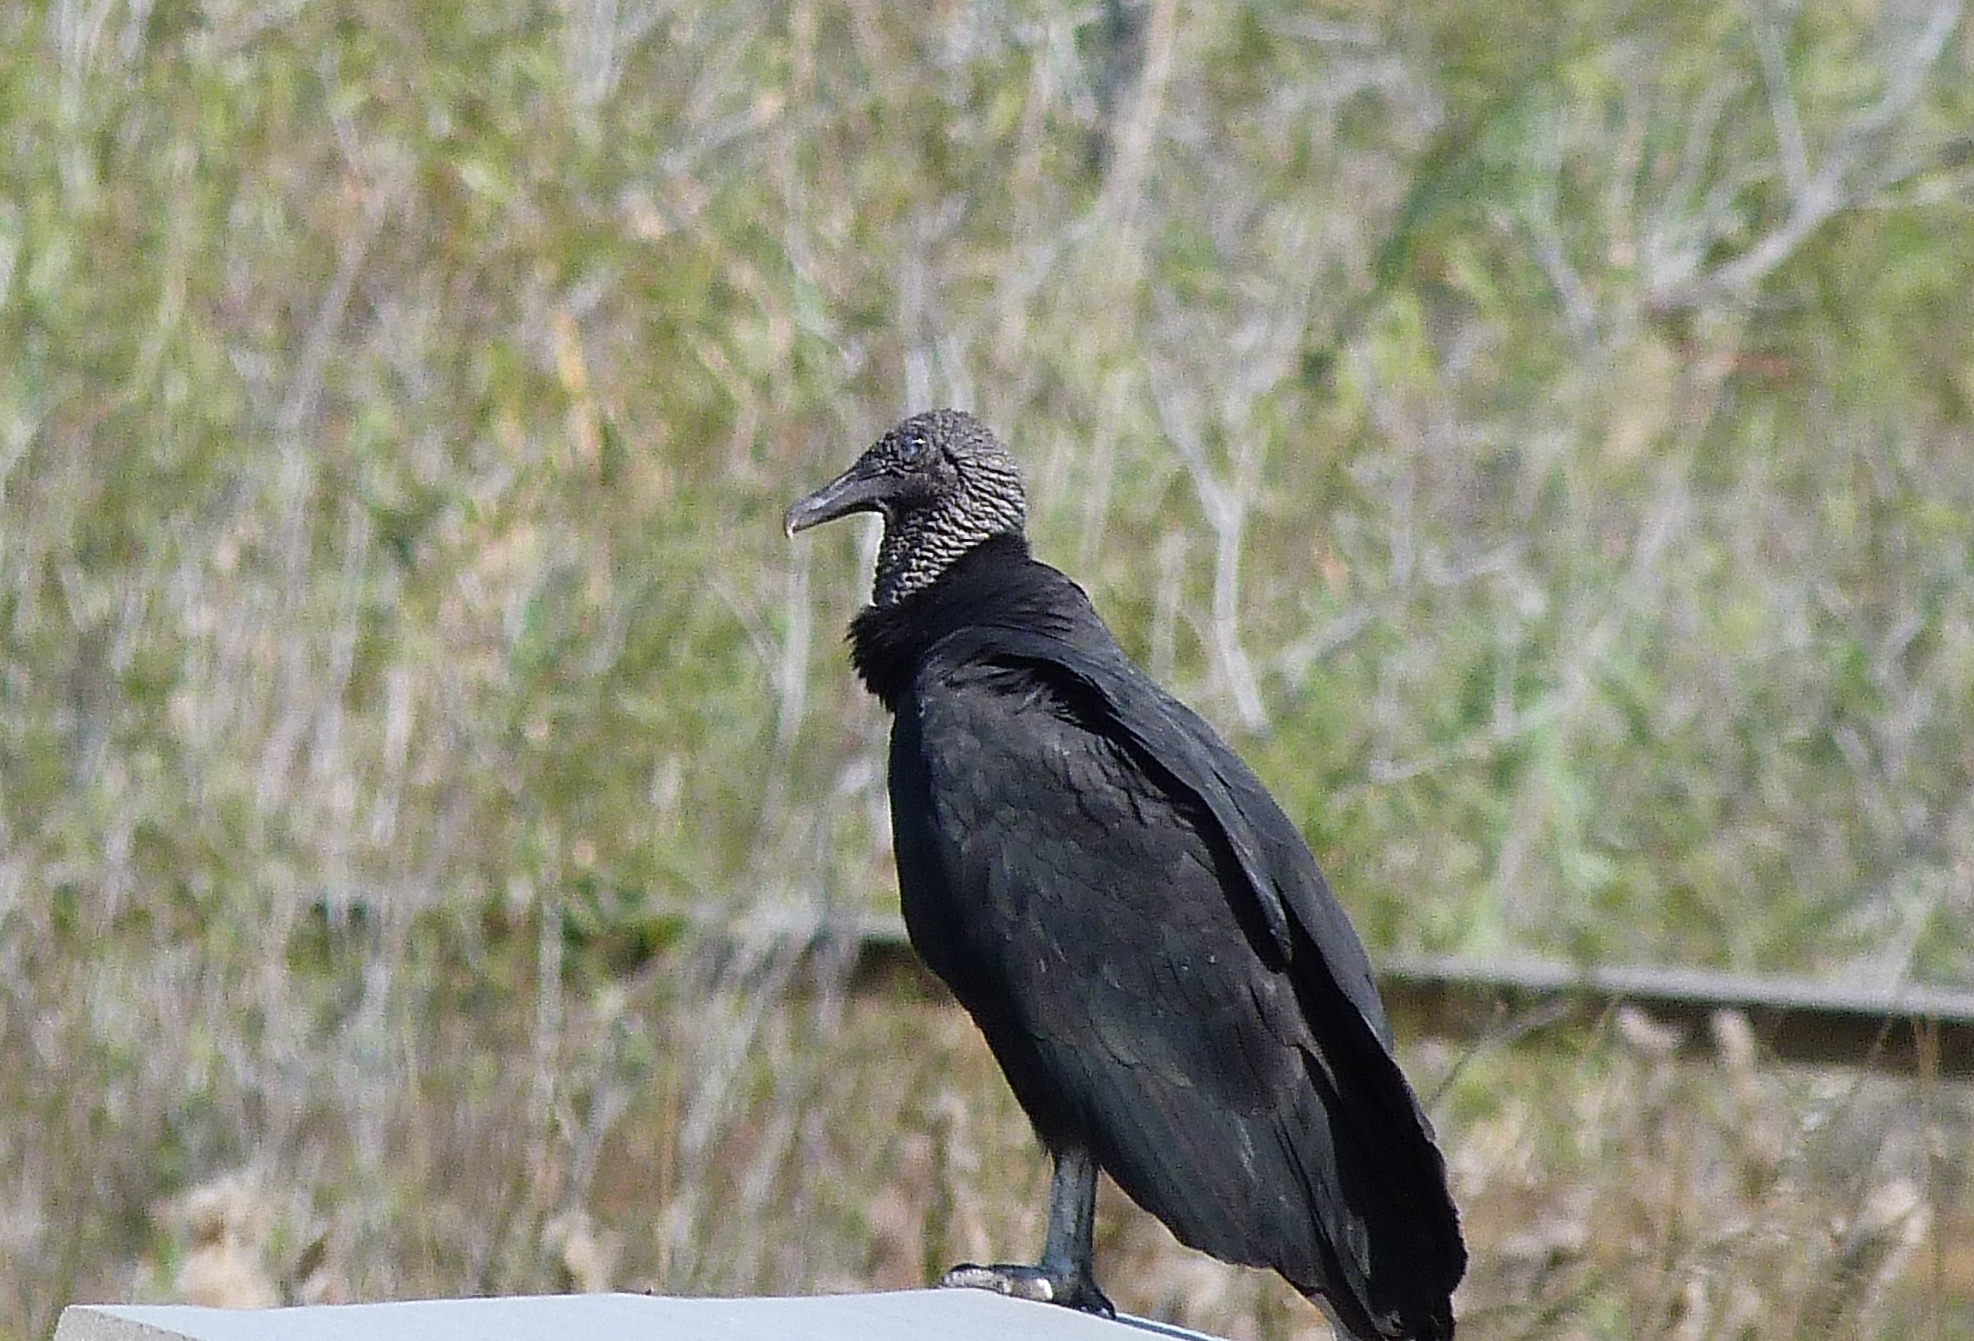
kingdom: Animalia
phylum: Chordata
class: Aves
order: Accipitriformes
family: Cathartidae
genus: Coragyps
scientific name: Coragyps atratus
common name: Black vulture
